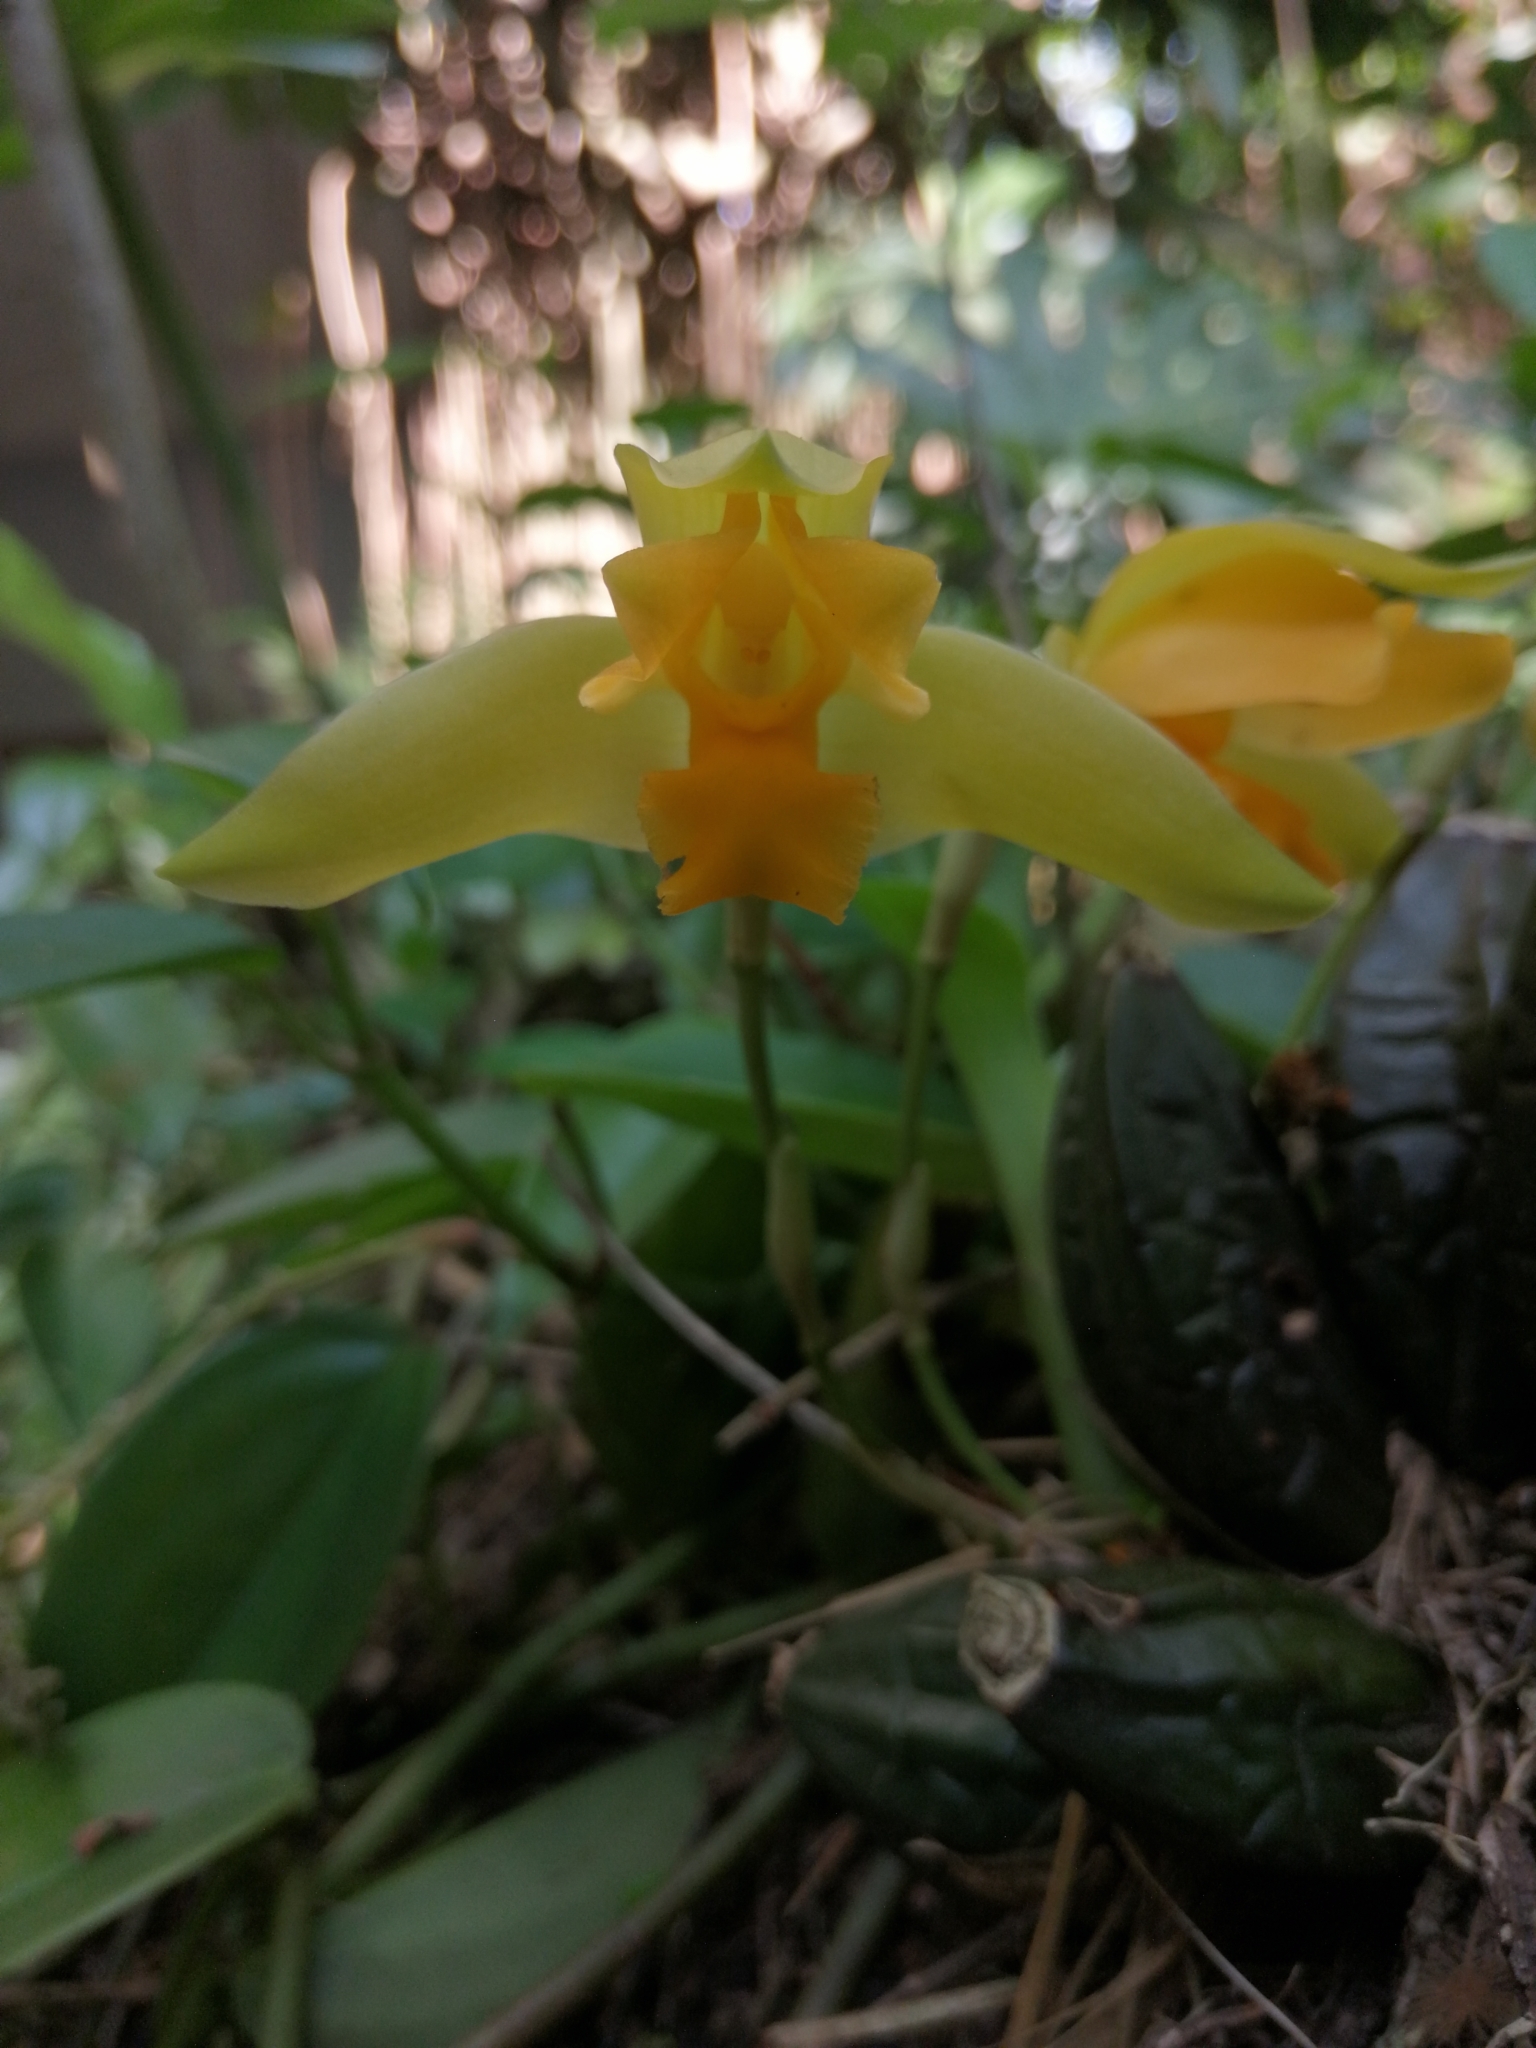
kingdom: Plantae
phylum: Tracheophyta
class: Liliopsida
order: Asparagales
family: Orchidaceae
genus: Lycaste
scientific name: Lycaste consobrina
